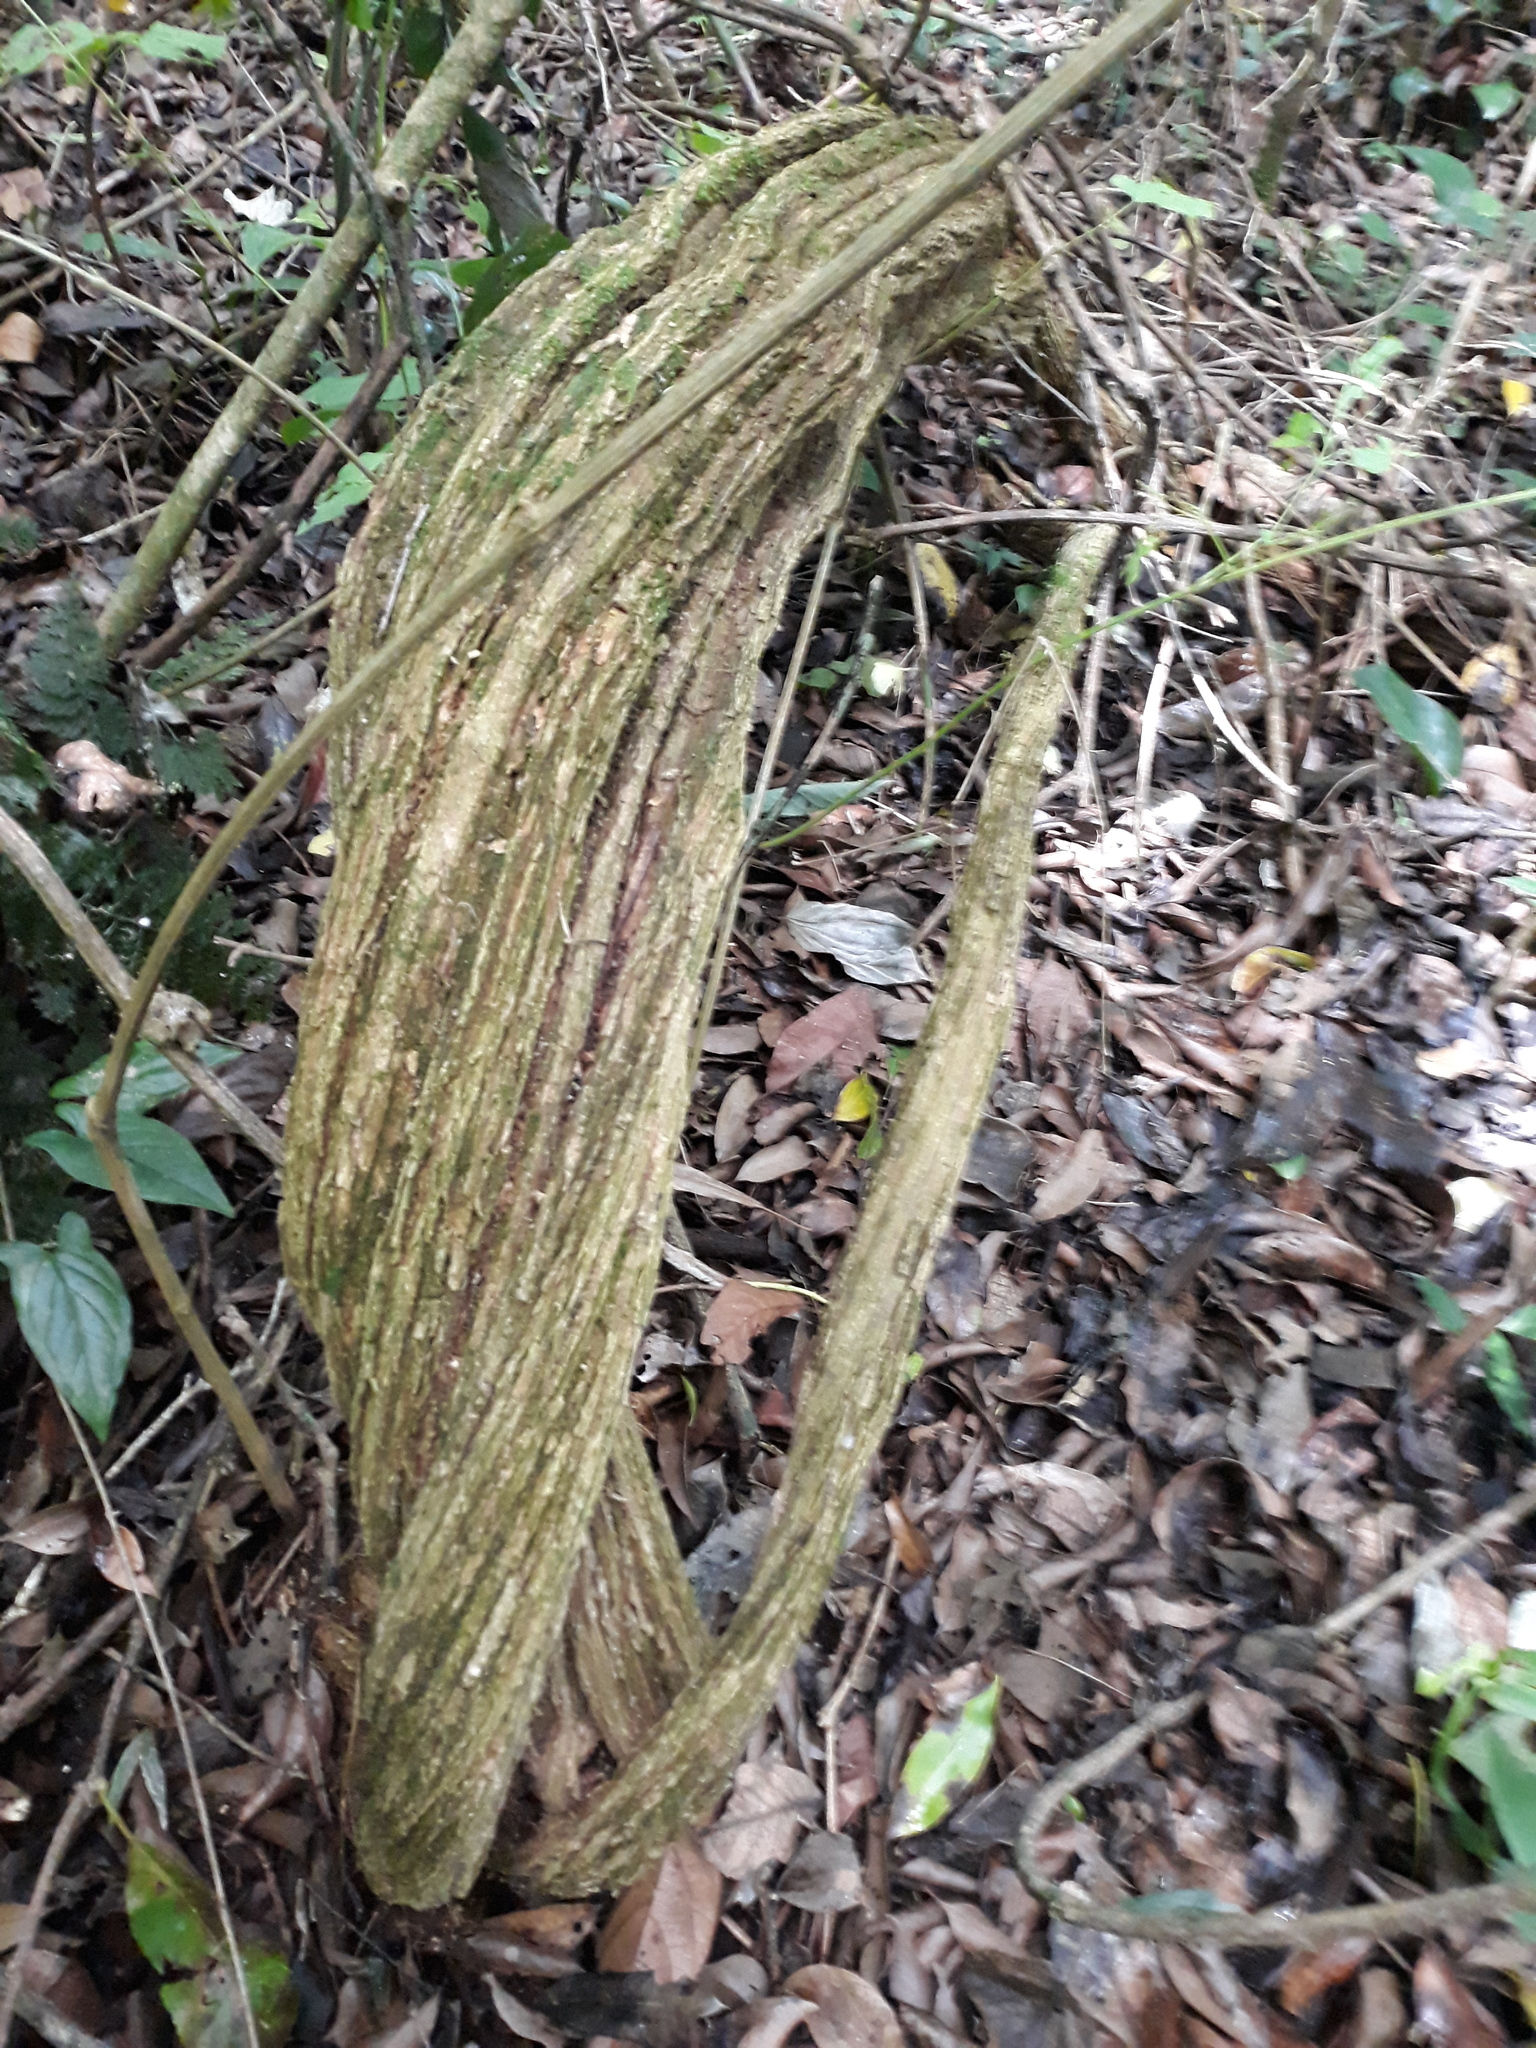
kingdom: Plantae
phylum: Tracheophyta
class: Magnoliopsida
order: Asterales
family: Asteraceae
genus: Tuxtla
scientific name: Tuxtla pittieri
